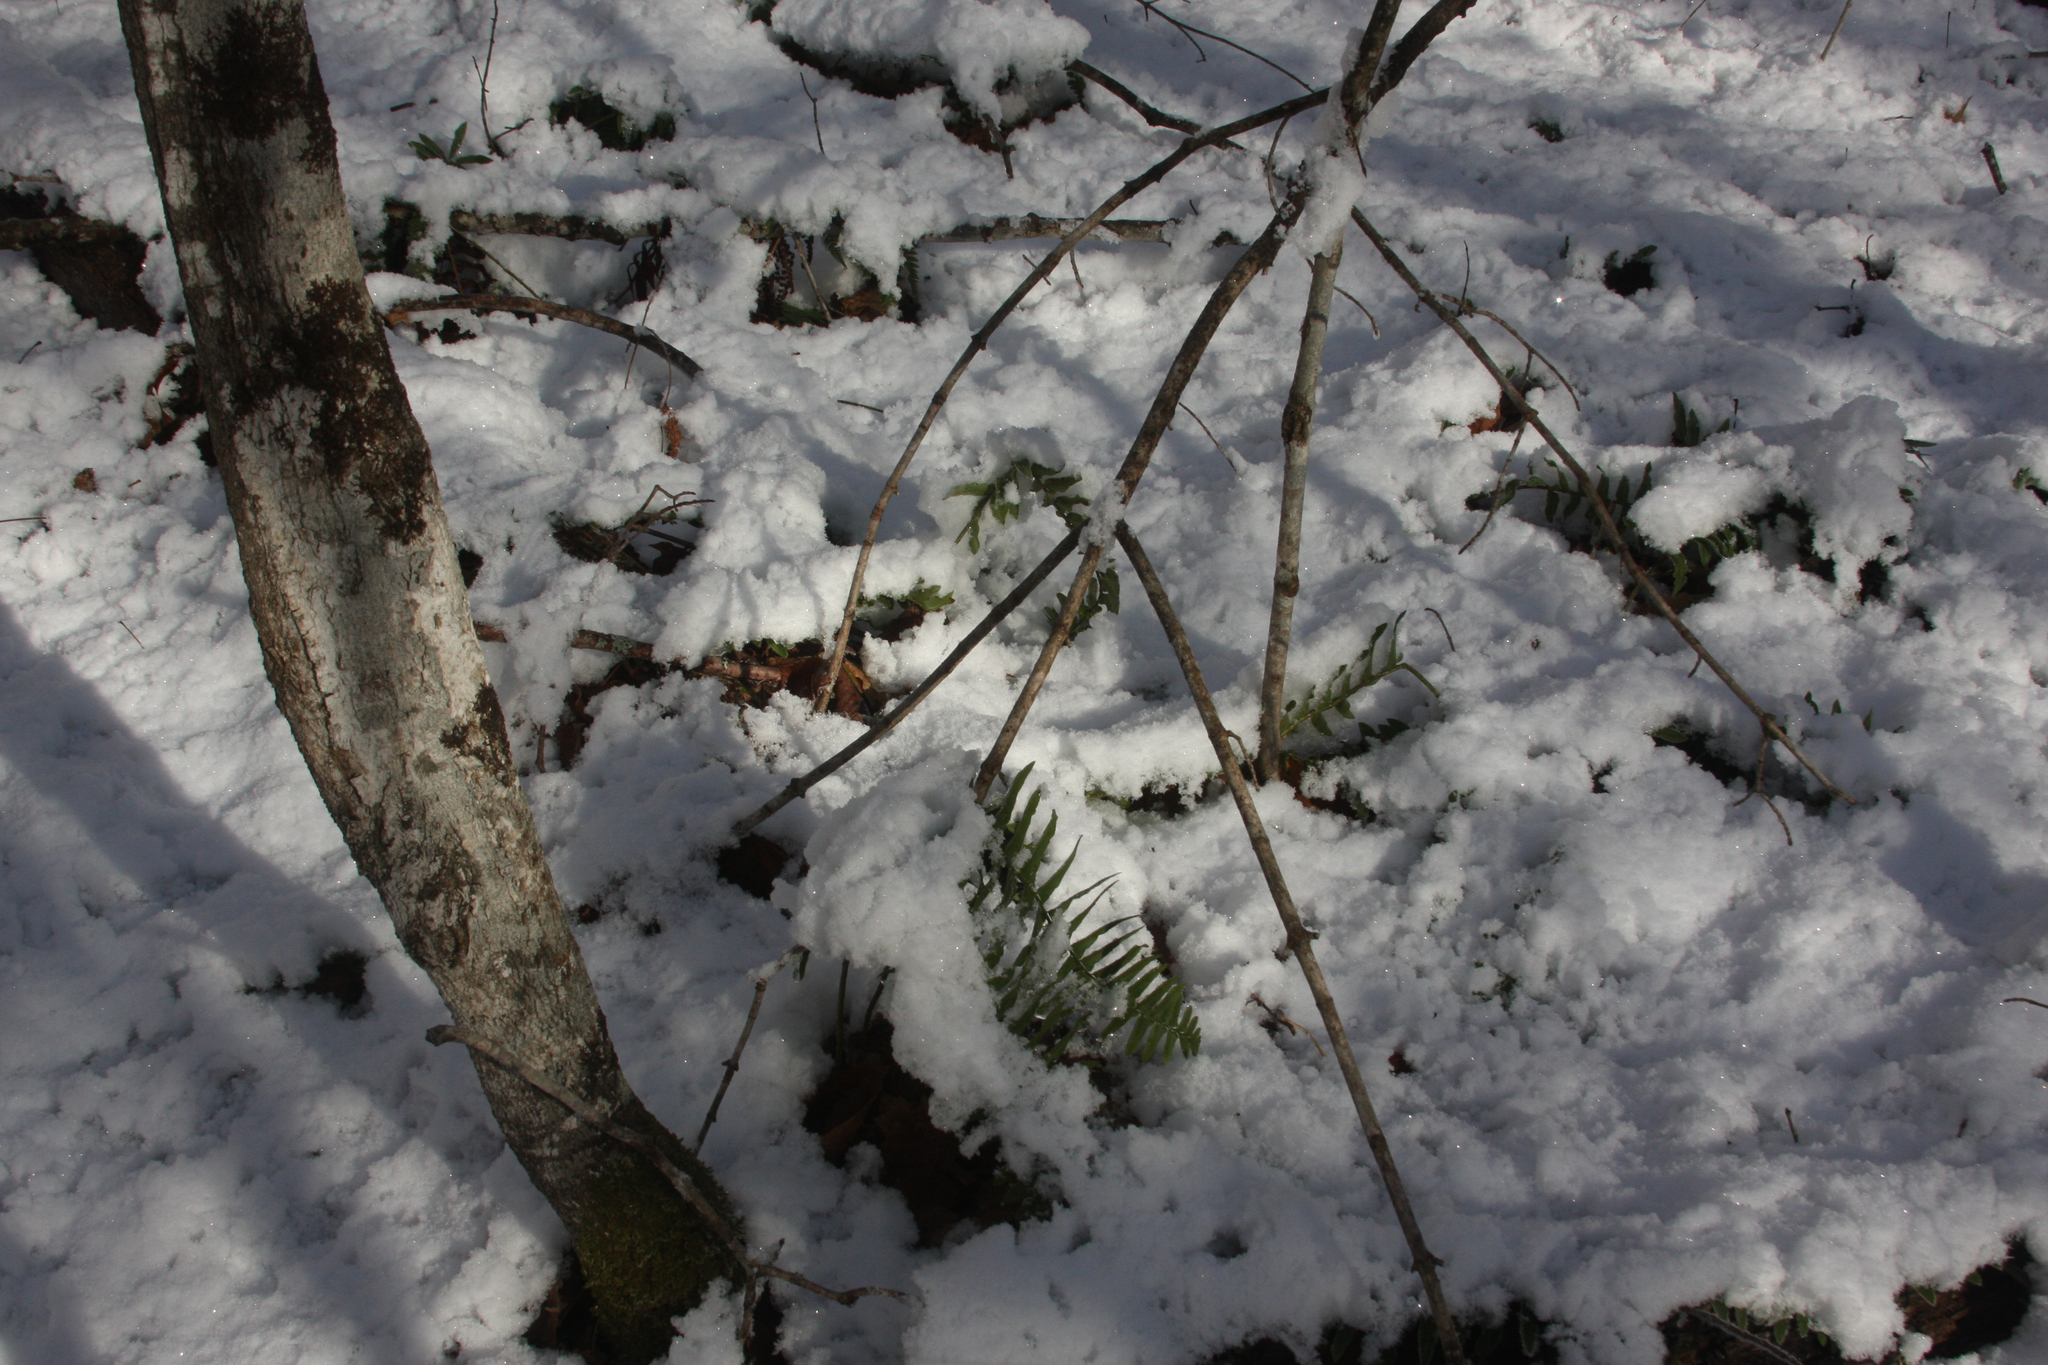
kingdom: Plantae
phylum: Tracheophyta
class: Polypodiopsida
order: Polypodiales
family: Dryopteridaceae
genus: Polystichum
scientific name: Polystichum acrostichoides
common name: Christmas fern
